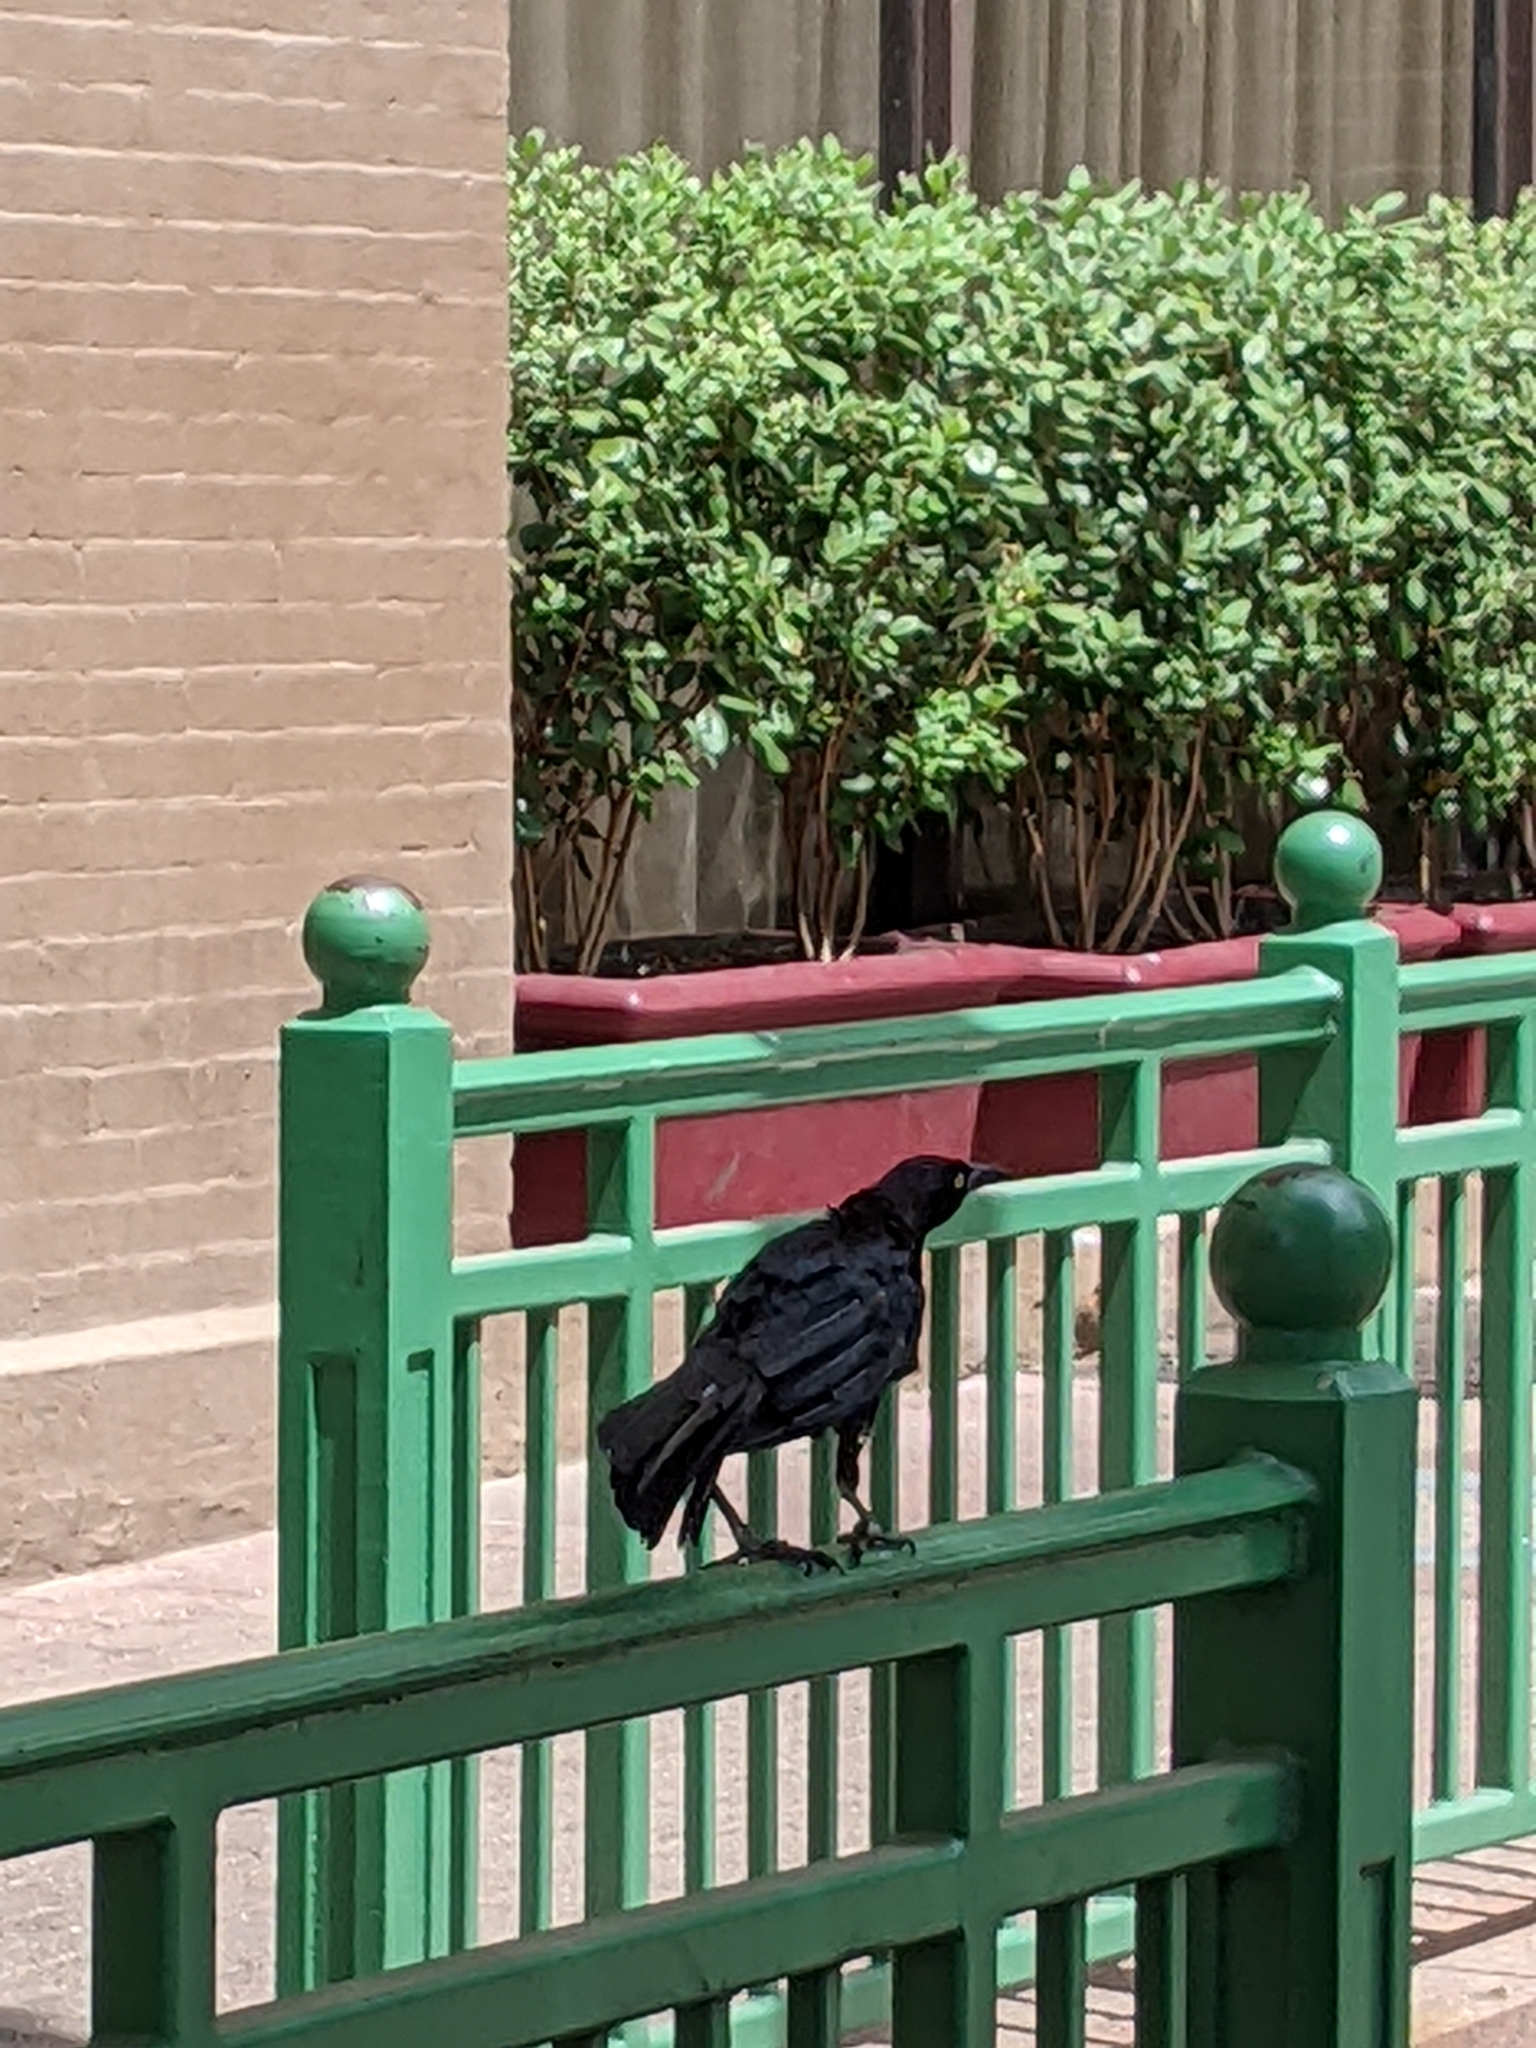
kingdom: Animalia
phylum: Chordata
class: Aves
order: Passeriformes
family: Icteridae
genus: Quiscalus
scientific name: Quiscalus mexicanus
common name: Great-tailed grackle
